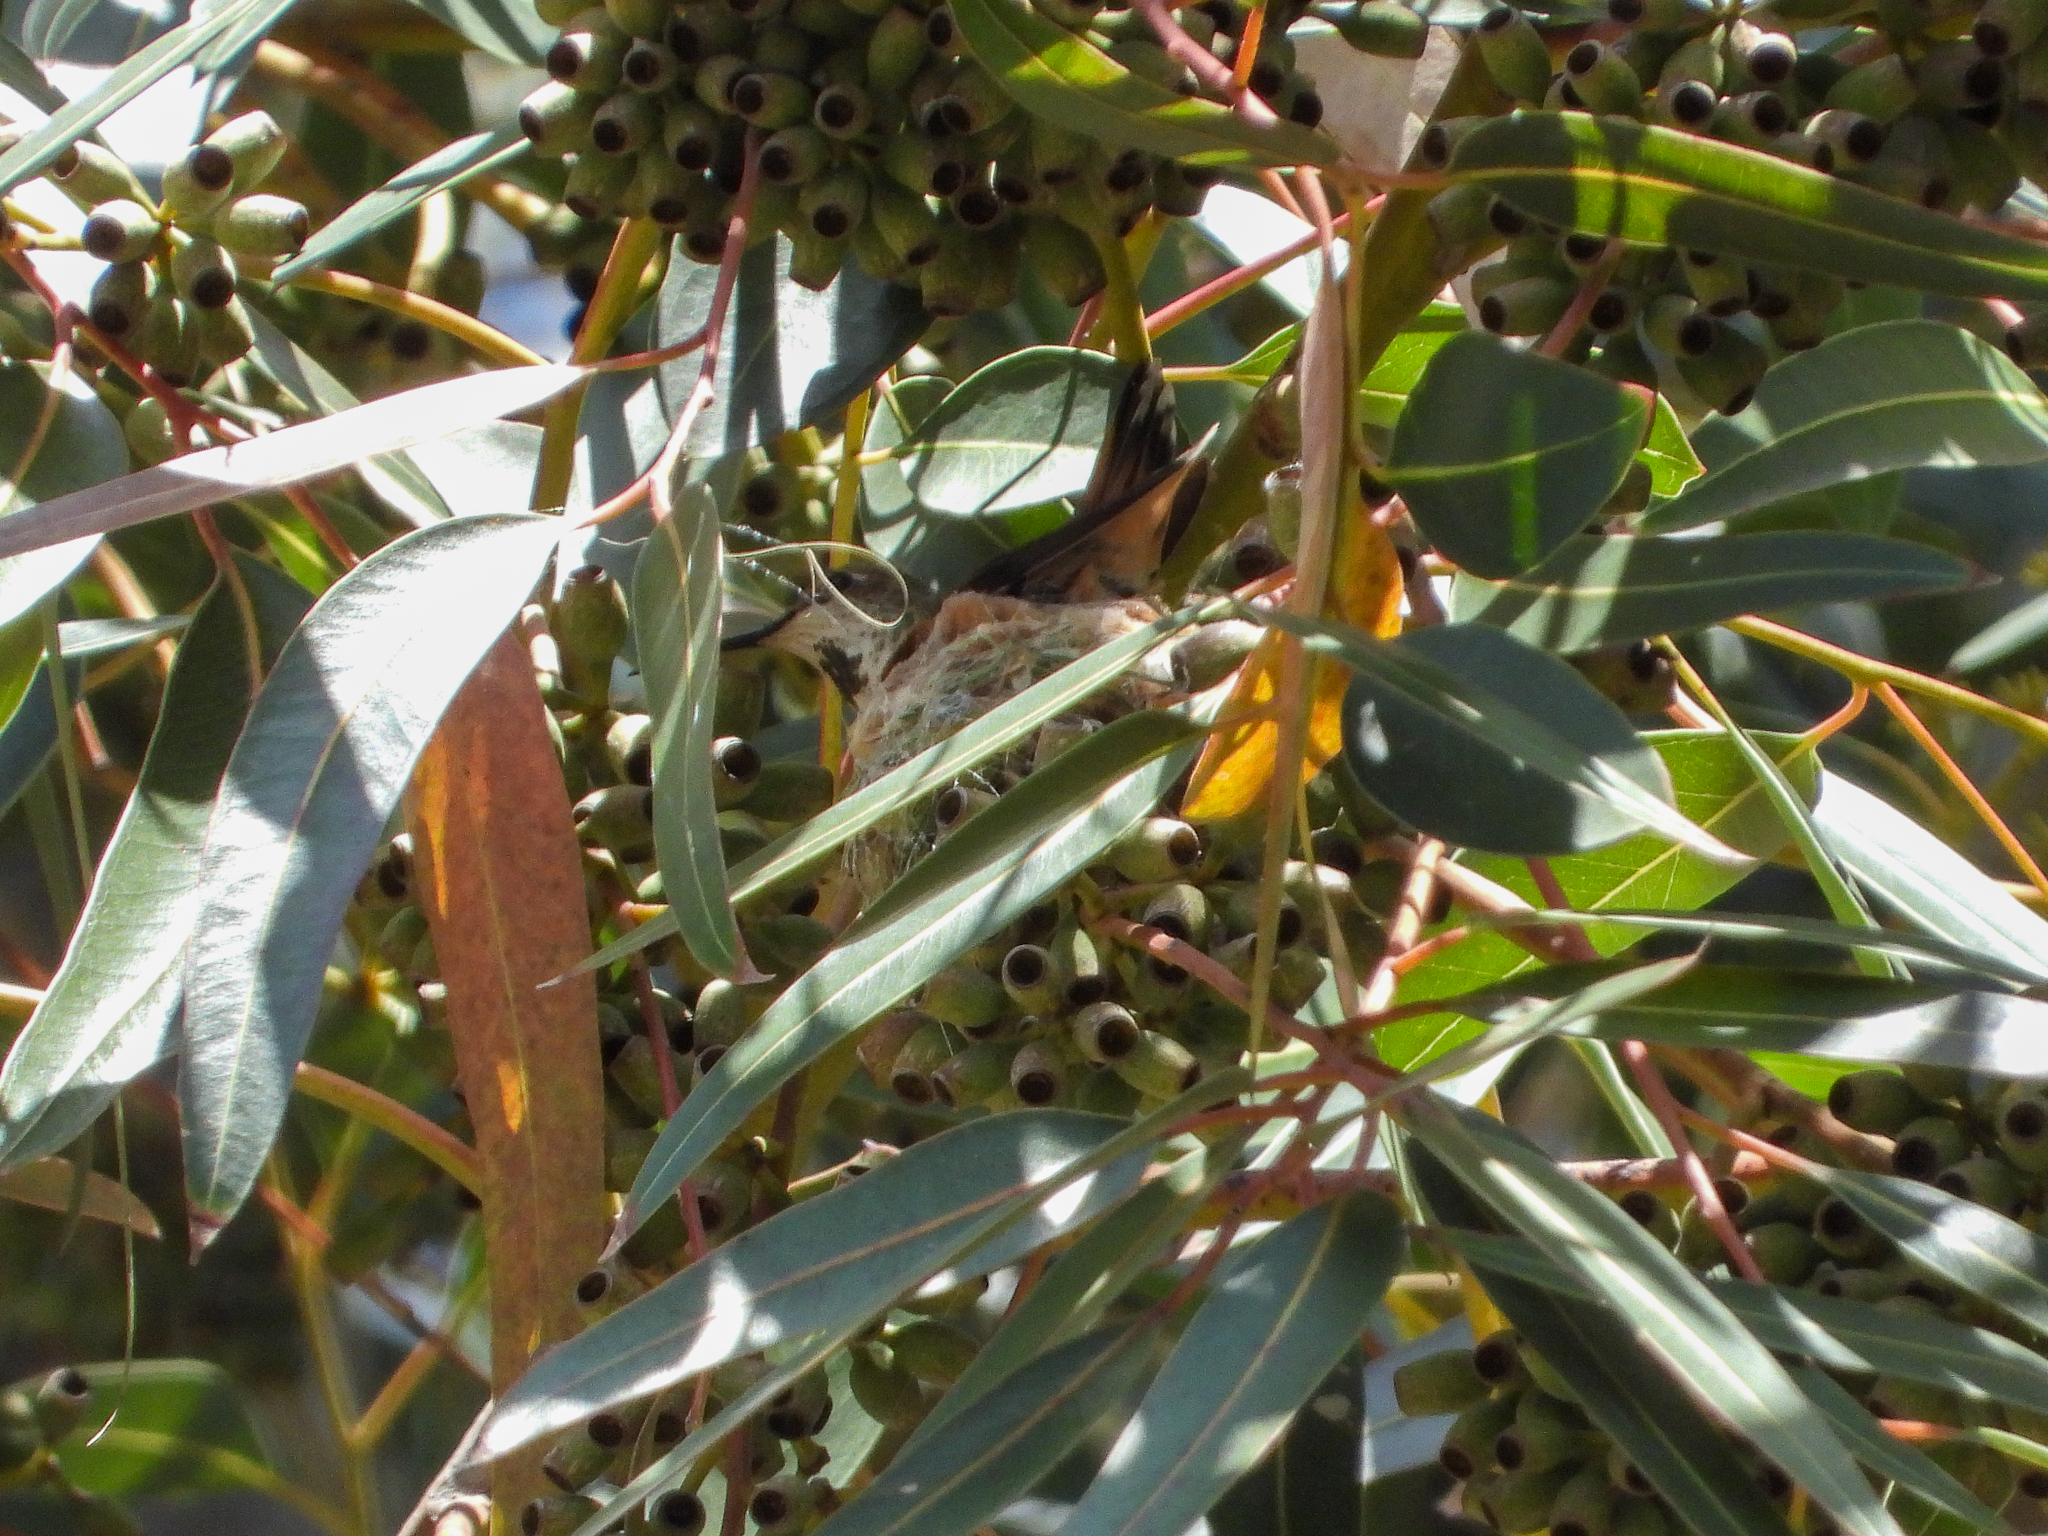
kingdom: Animalia
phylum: Chordata
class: Aves
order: Apodiformes
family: Trochilidae
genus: Selasphorus
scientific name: Selasphorus sasin
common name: Allen's hummingbird
